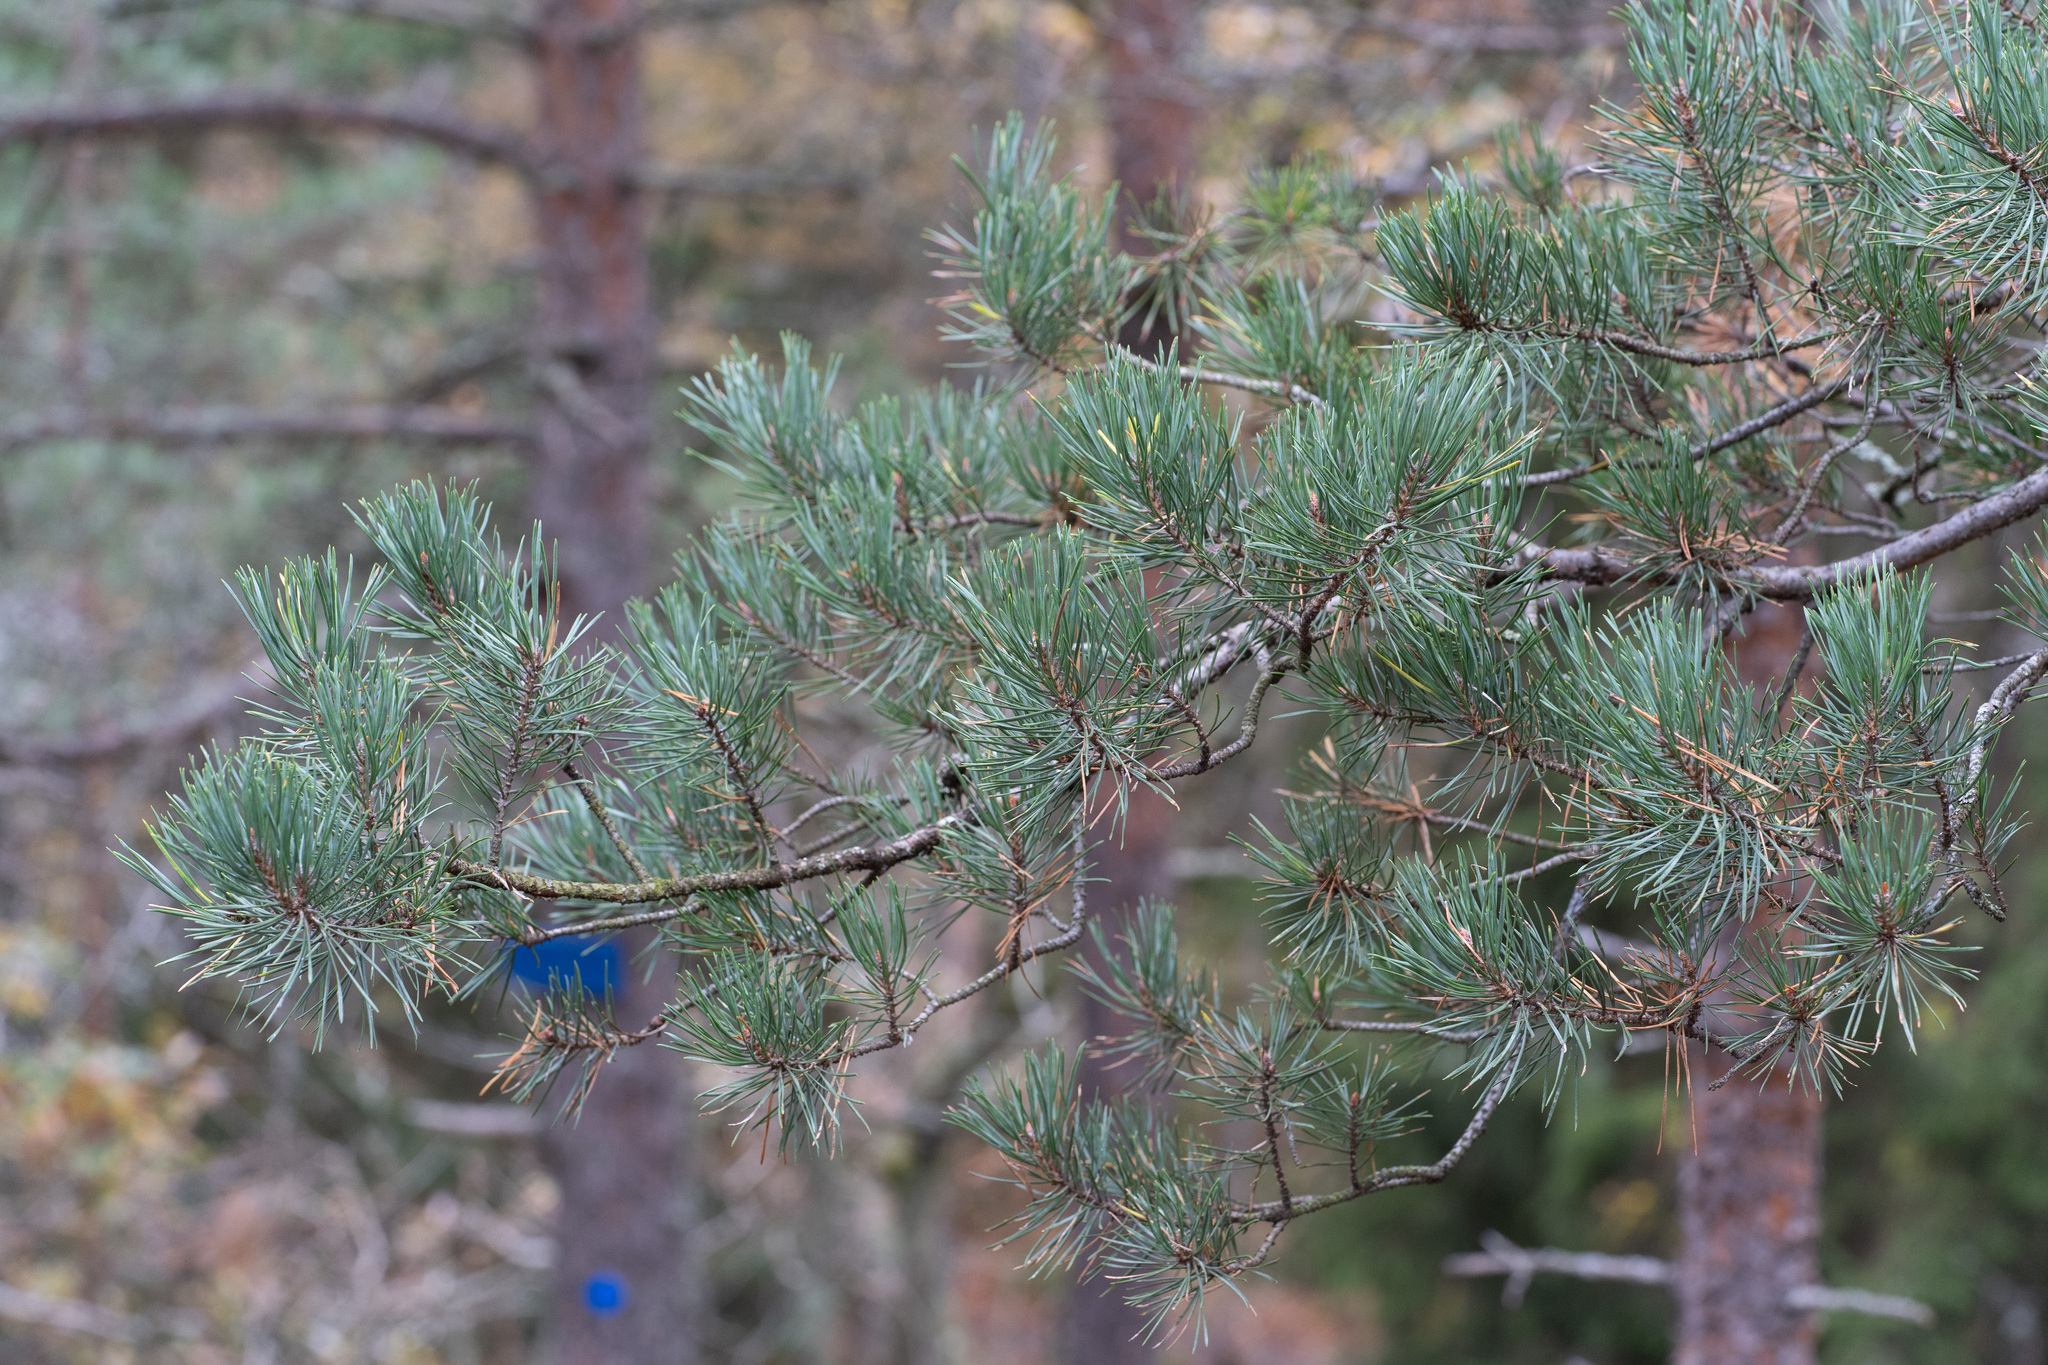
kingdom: Plantae
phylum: Tracheophyta
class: Pinopsida
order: Pinales
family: Pinaceae
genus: Pinus
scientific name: Pinus sylvestris
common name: Scots pine
